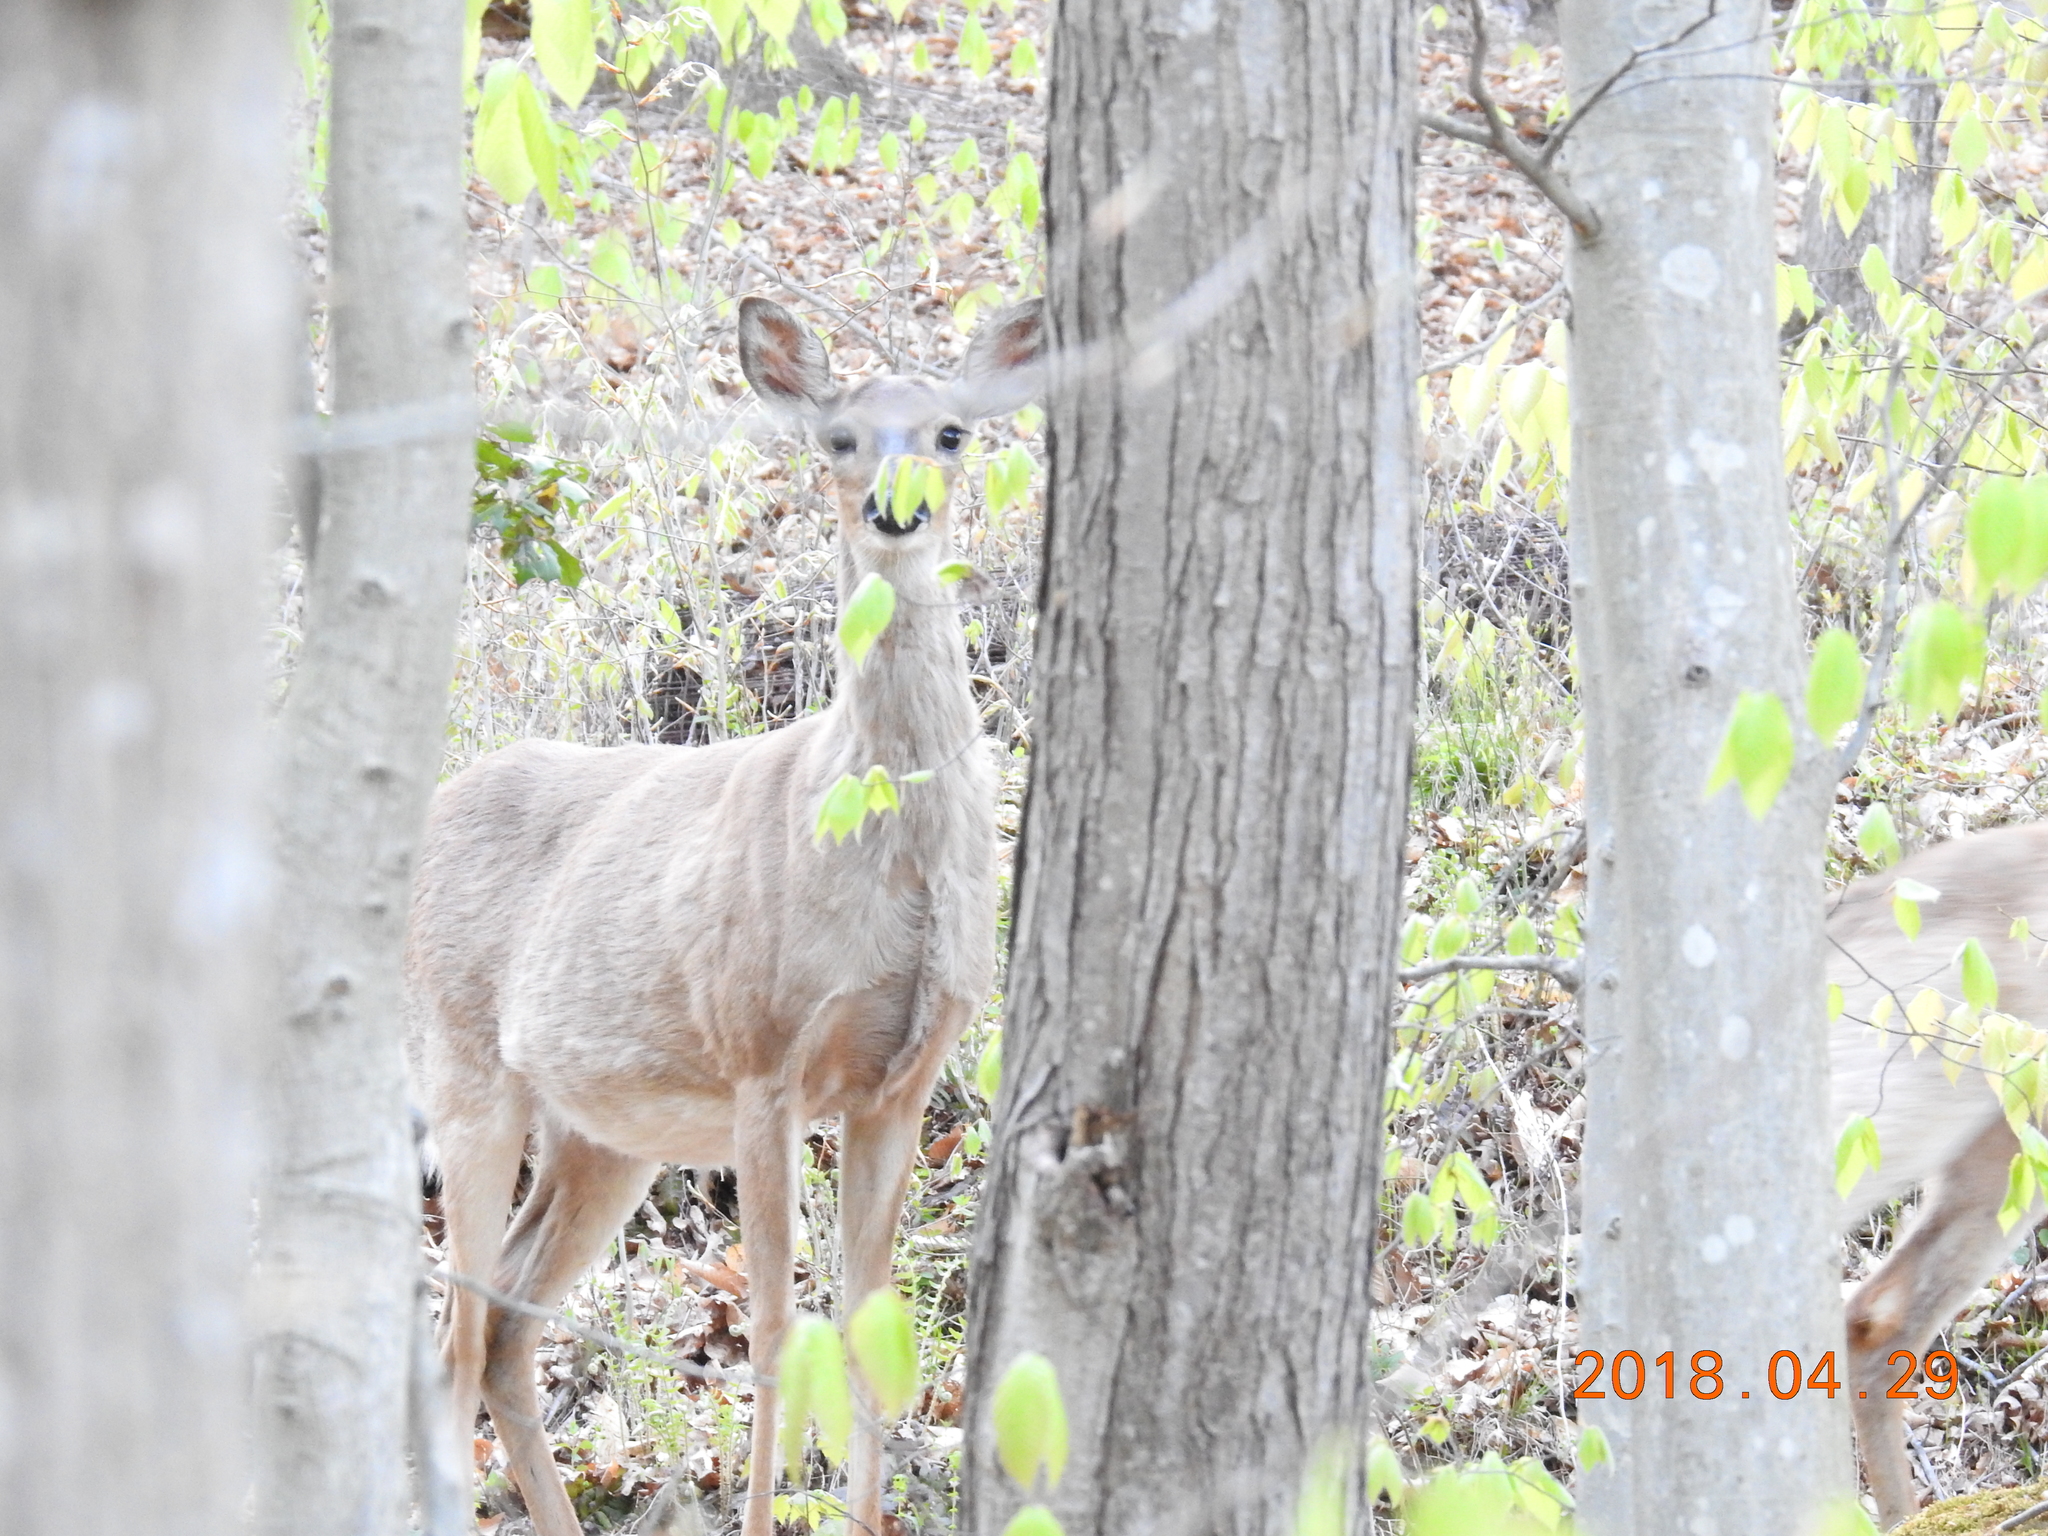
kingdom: Animalia
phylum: Chordata
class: Mammalia
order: Artiodactyla
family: Cervidae
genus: Odocoileus
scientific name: Odocoileus virginianus
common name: White-tailed deer
